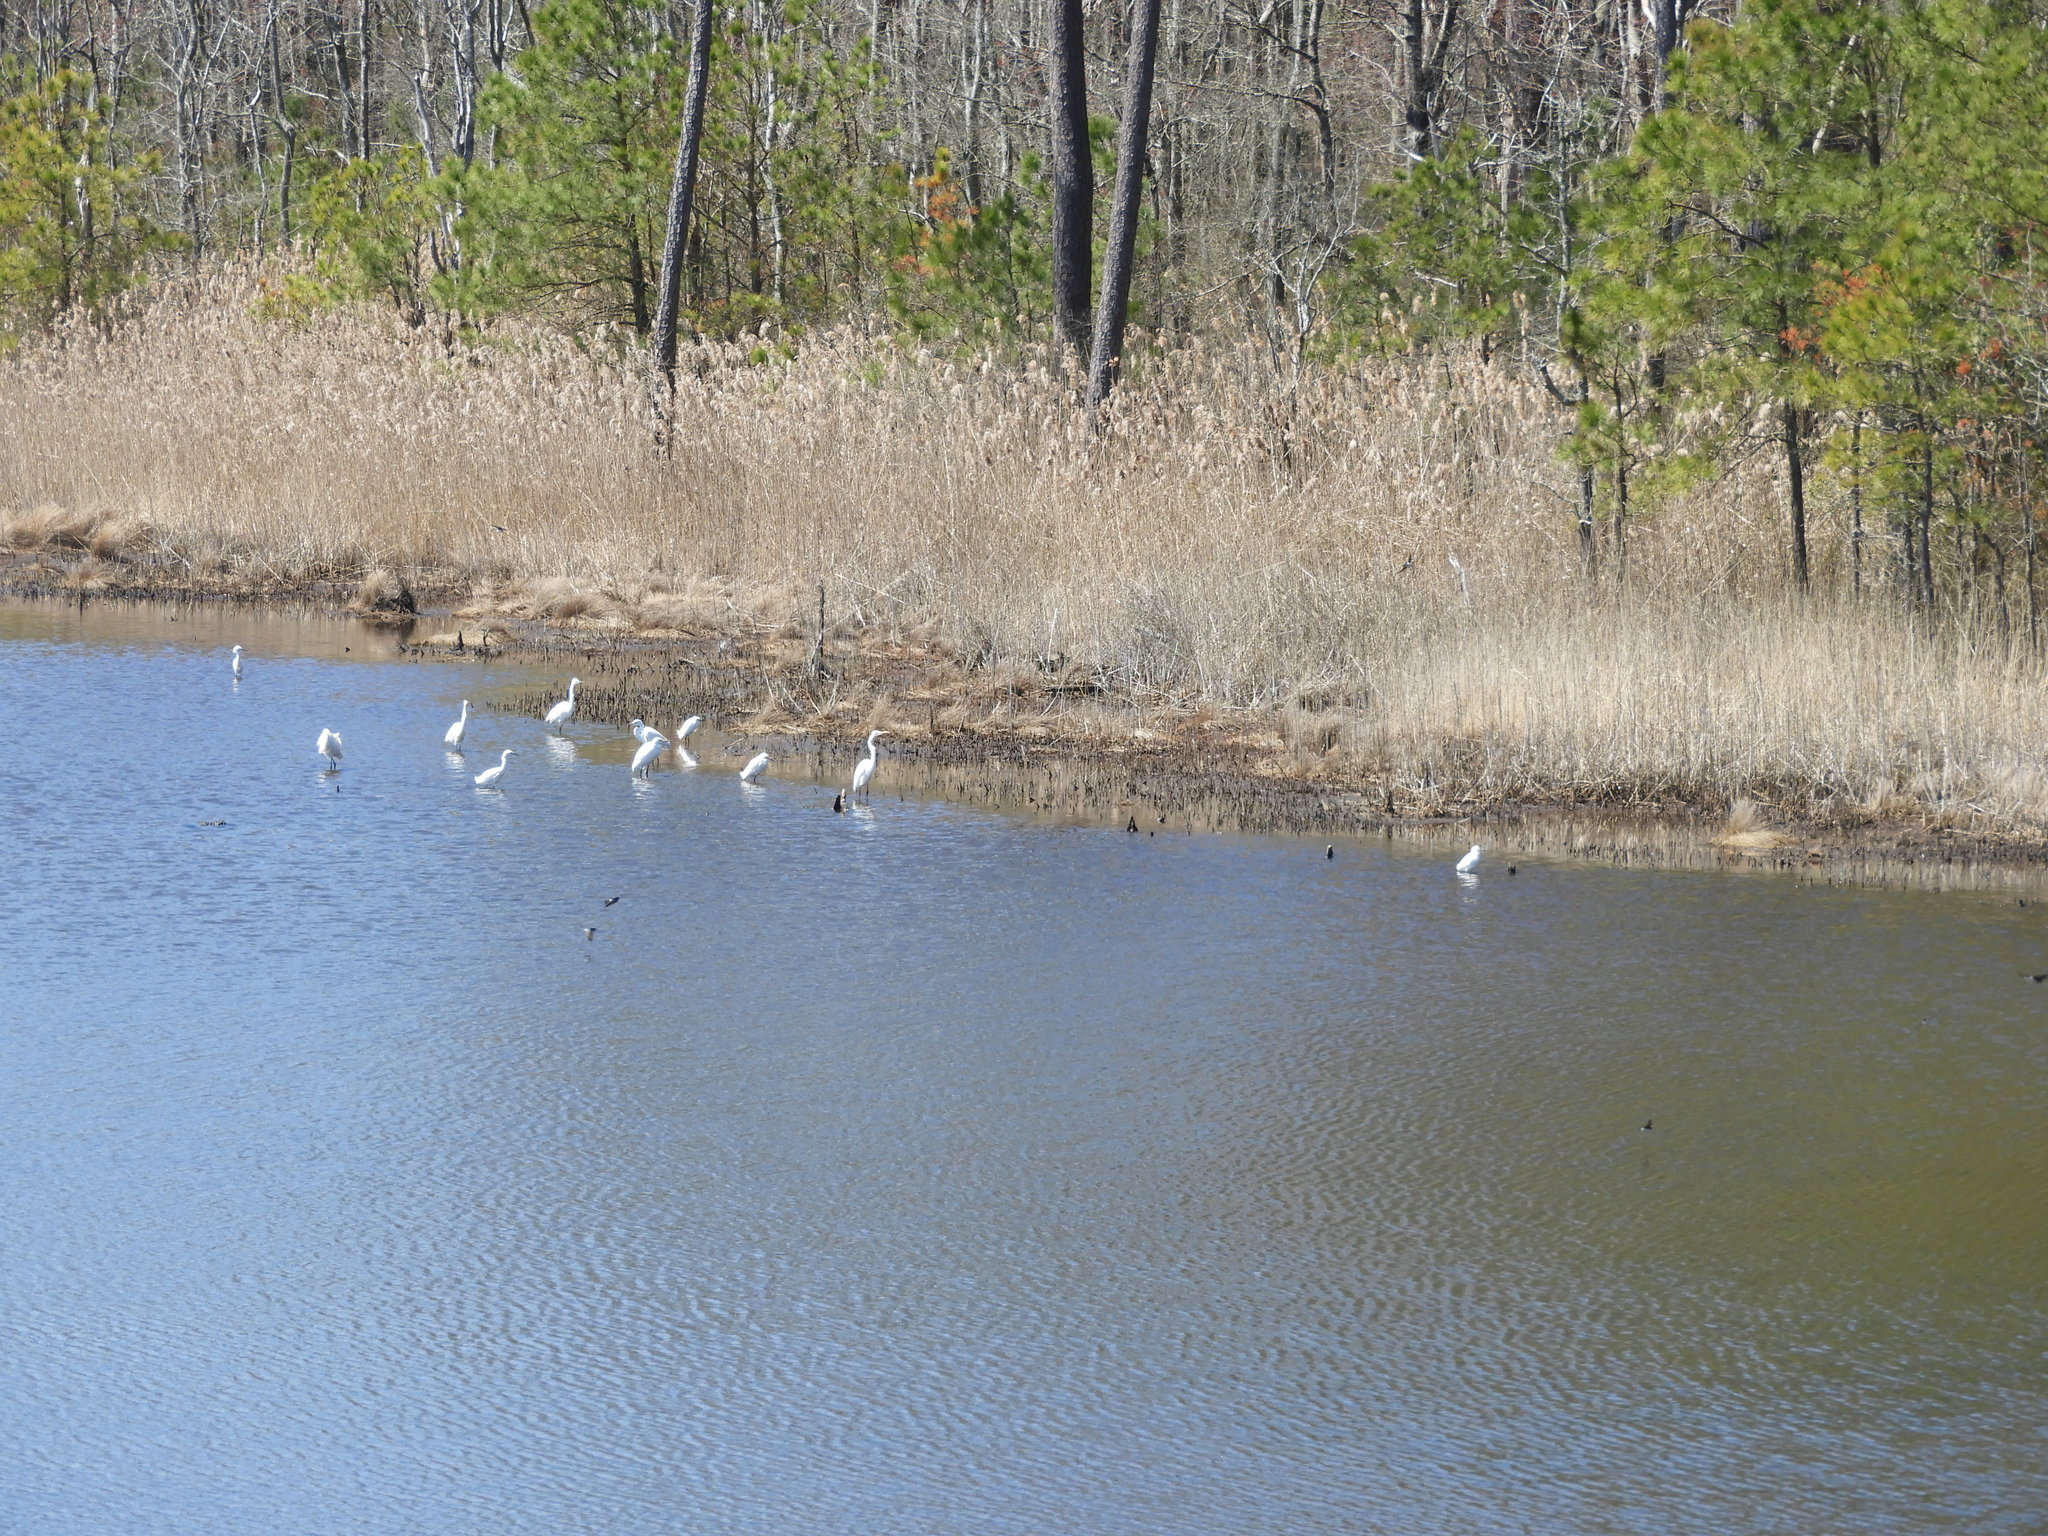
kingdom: Animalia
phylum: Chordata
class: Aves
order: Pelecaniformes
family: Ardeidae
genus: Egretta
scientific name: Egretta thula
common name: Snowy egret
